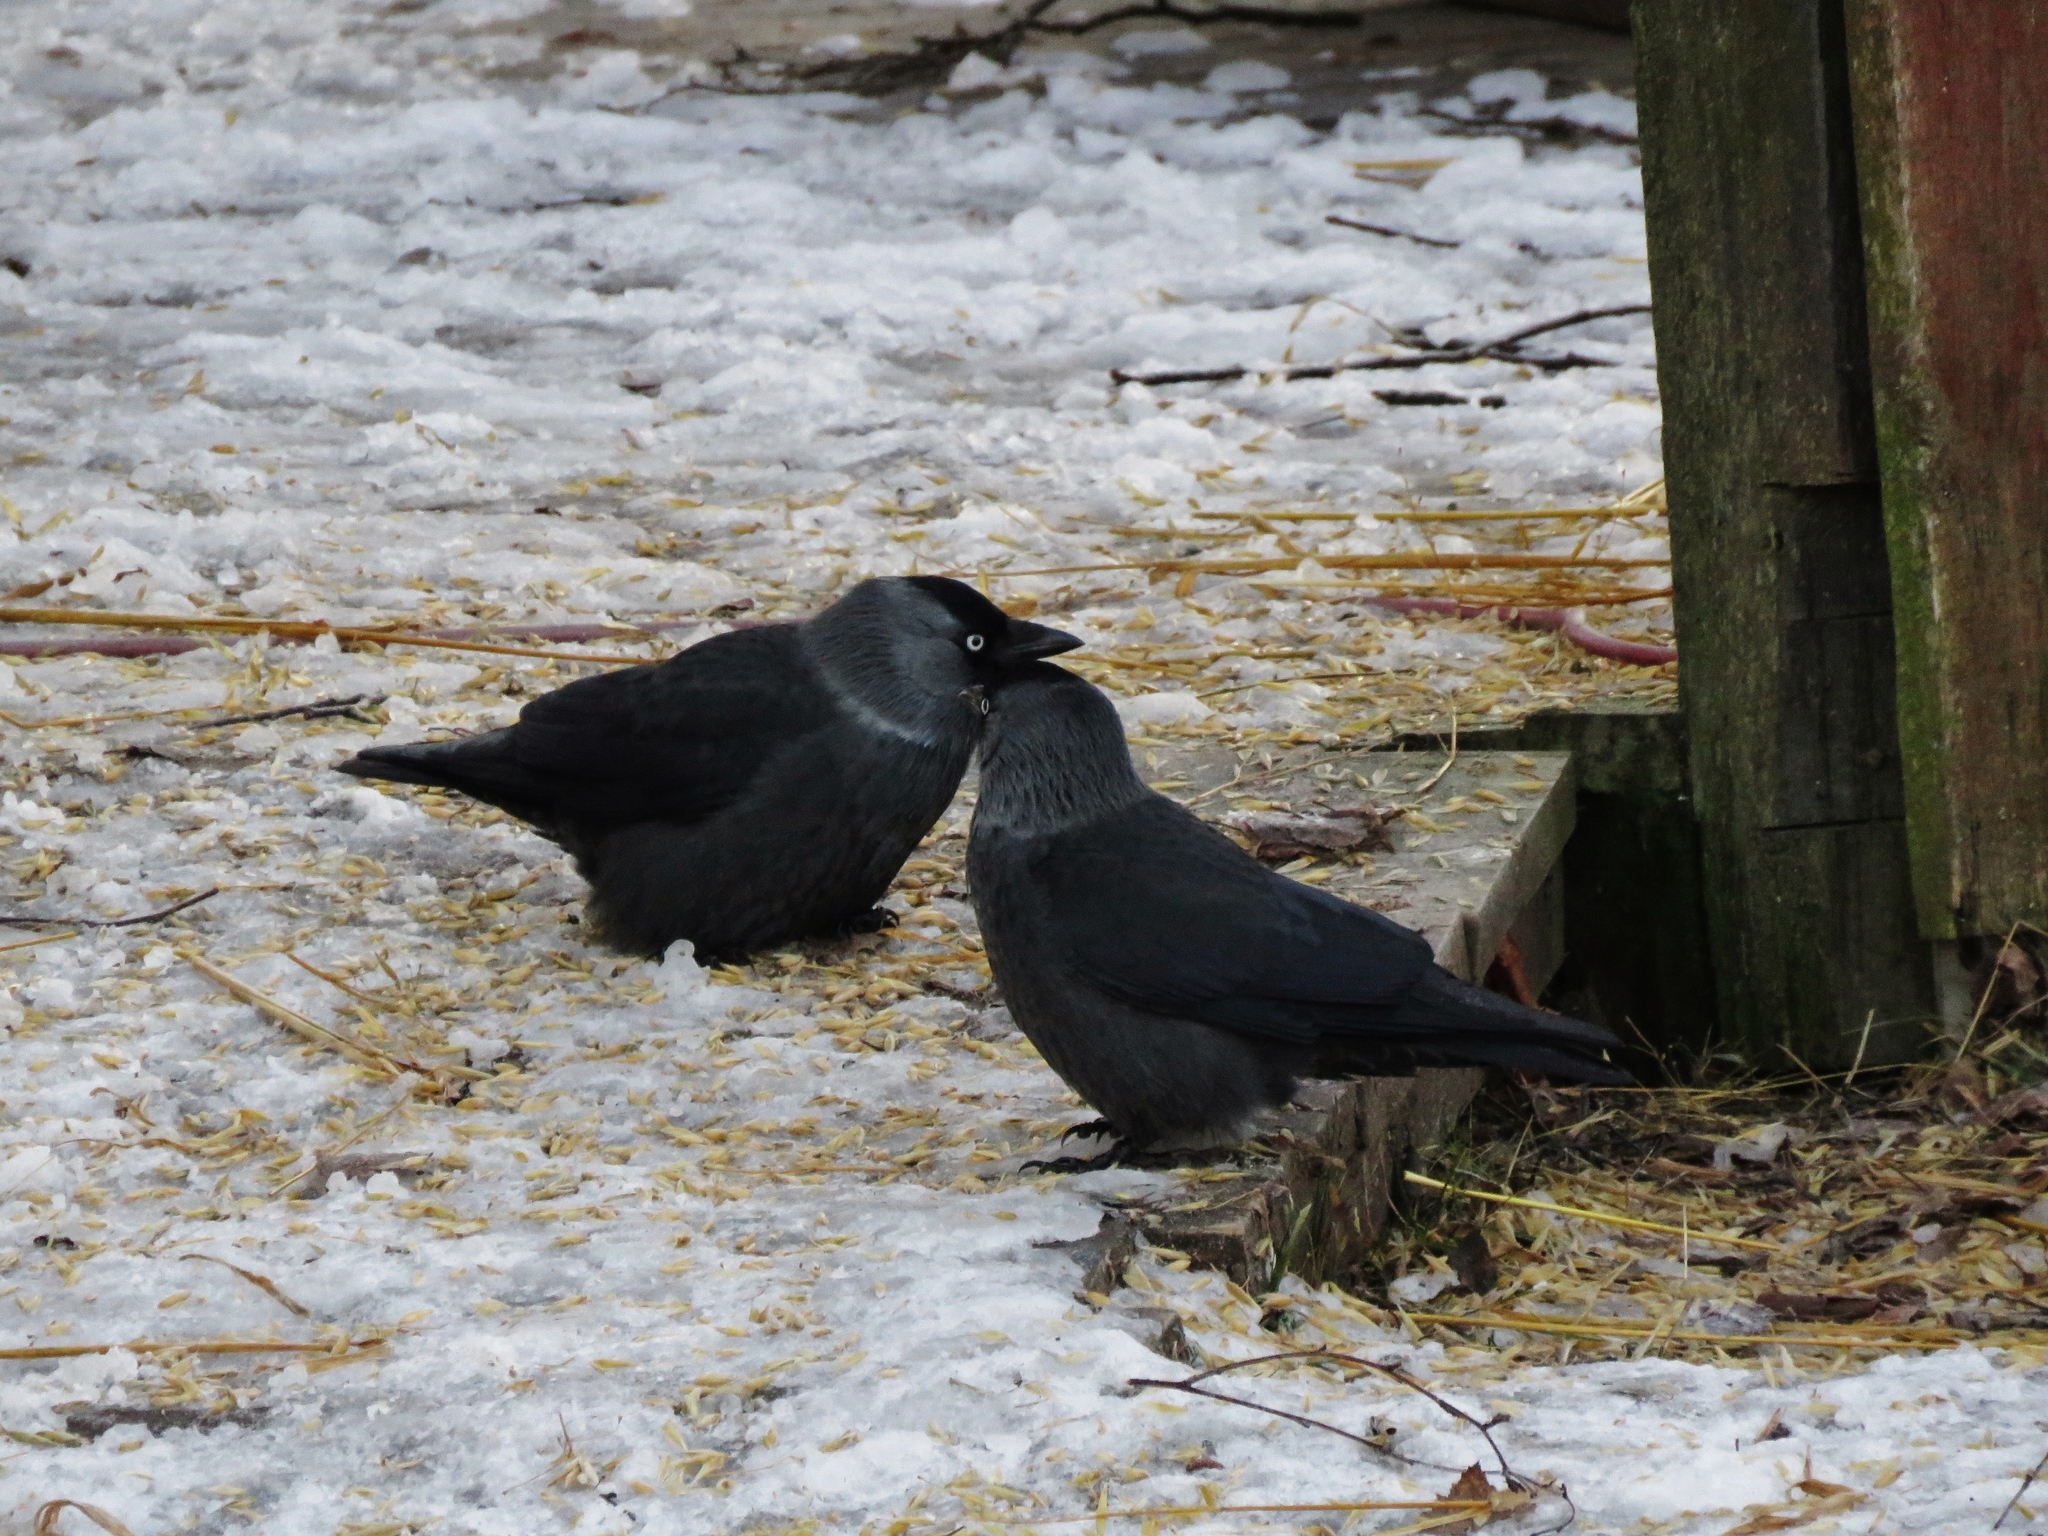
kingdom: Animalia
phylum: Chordata
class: Aves
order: Passeriformes
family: Corvidae
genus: Coloeus
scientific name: Coloeus monedula
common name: Western jackdaw
